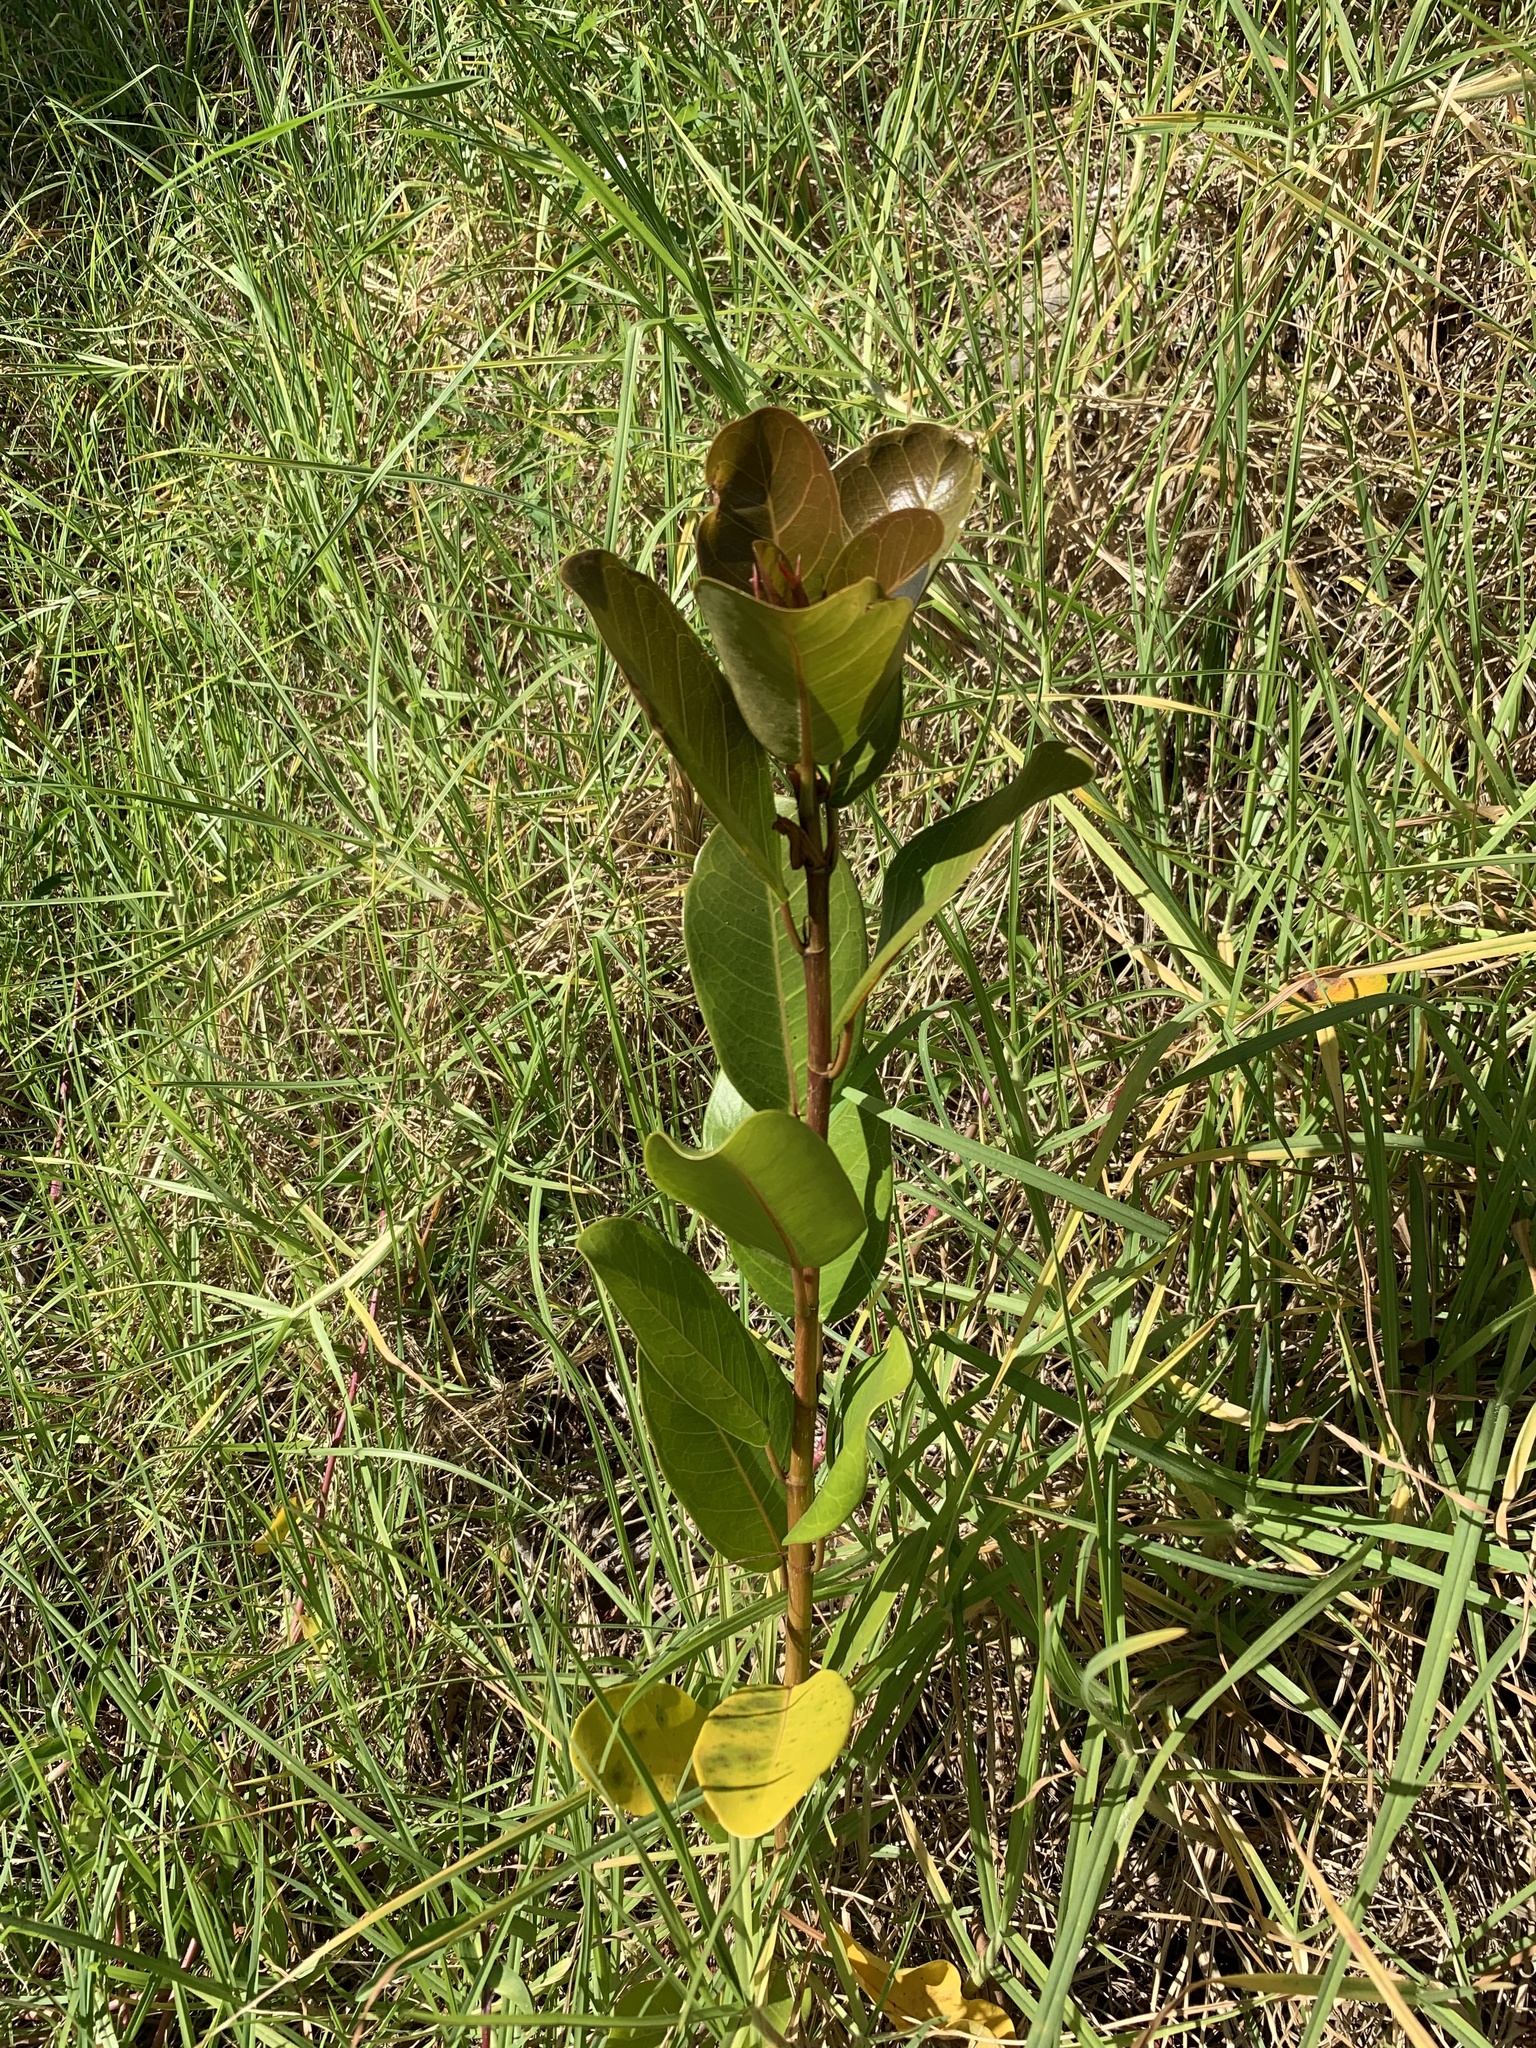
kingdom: Plantae
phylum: Tracheophyta
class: Magnoliopsida
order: Rosales
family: Moraceae
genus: Ficus
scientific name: Ficus thonningii
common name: Fig
